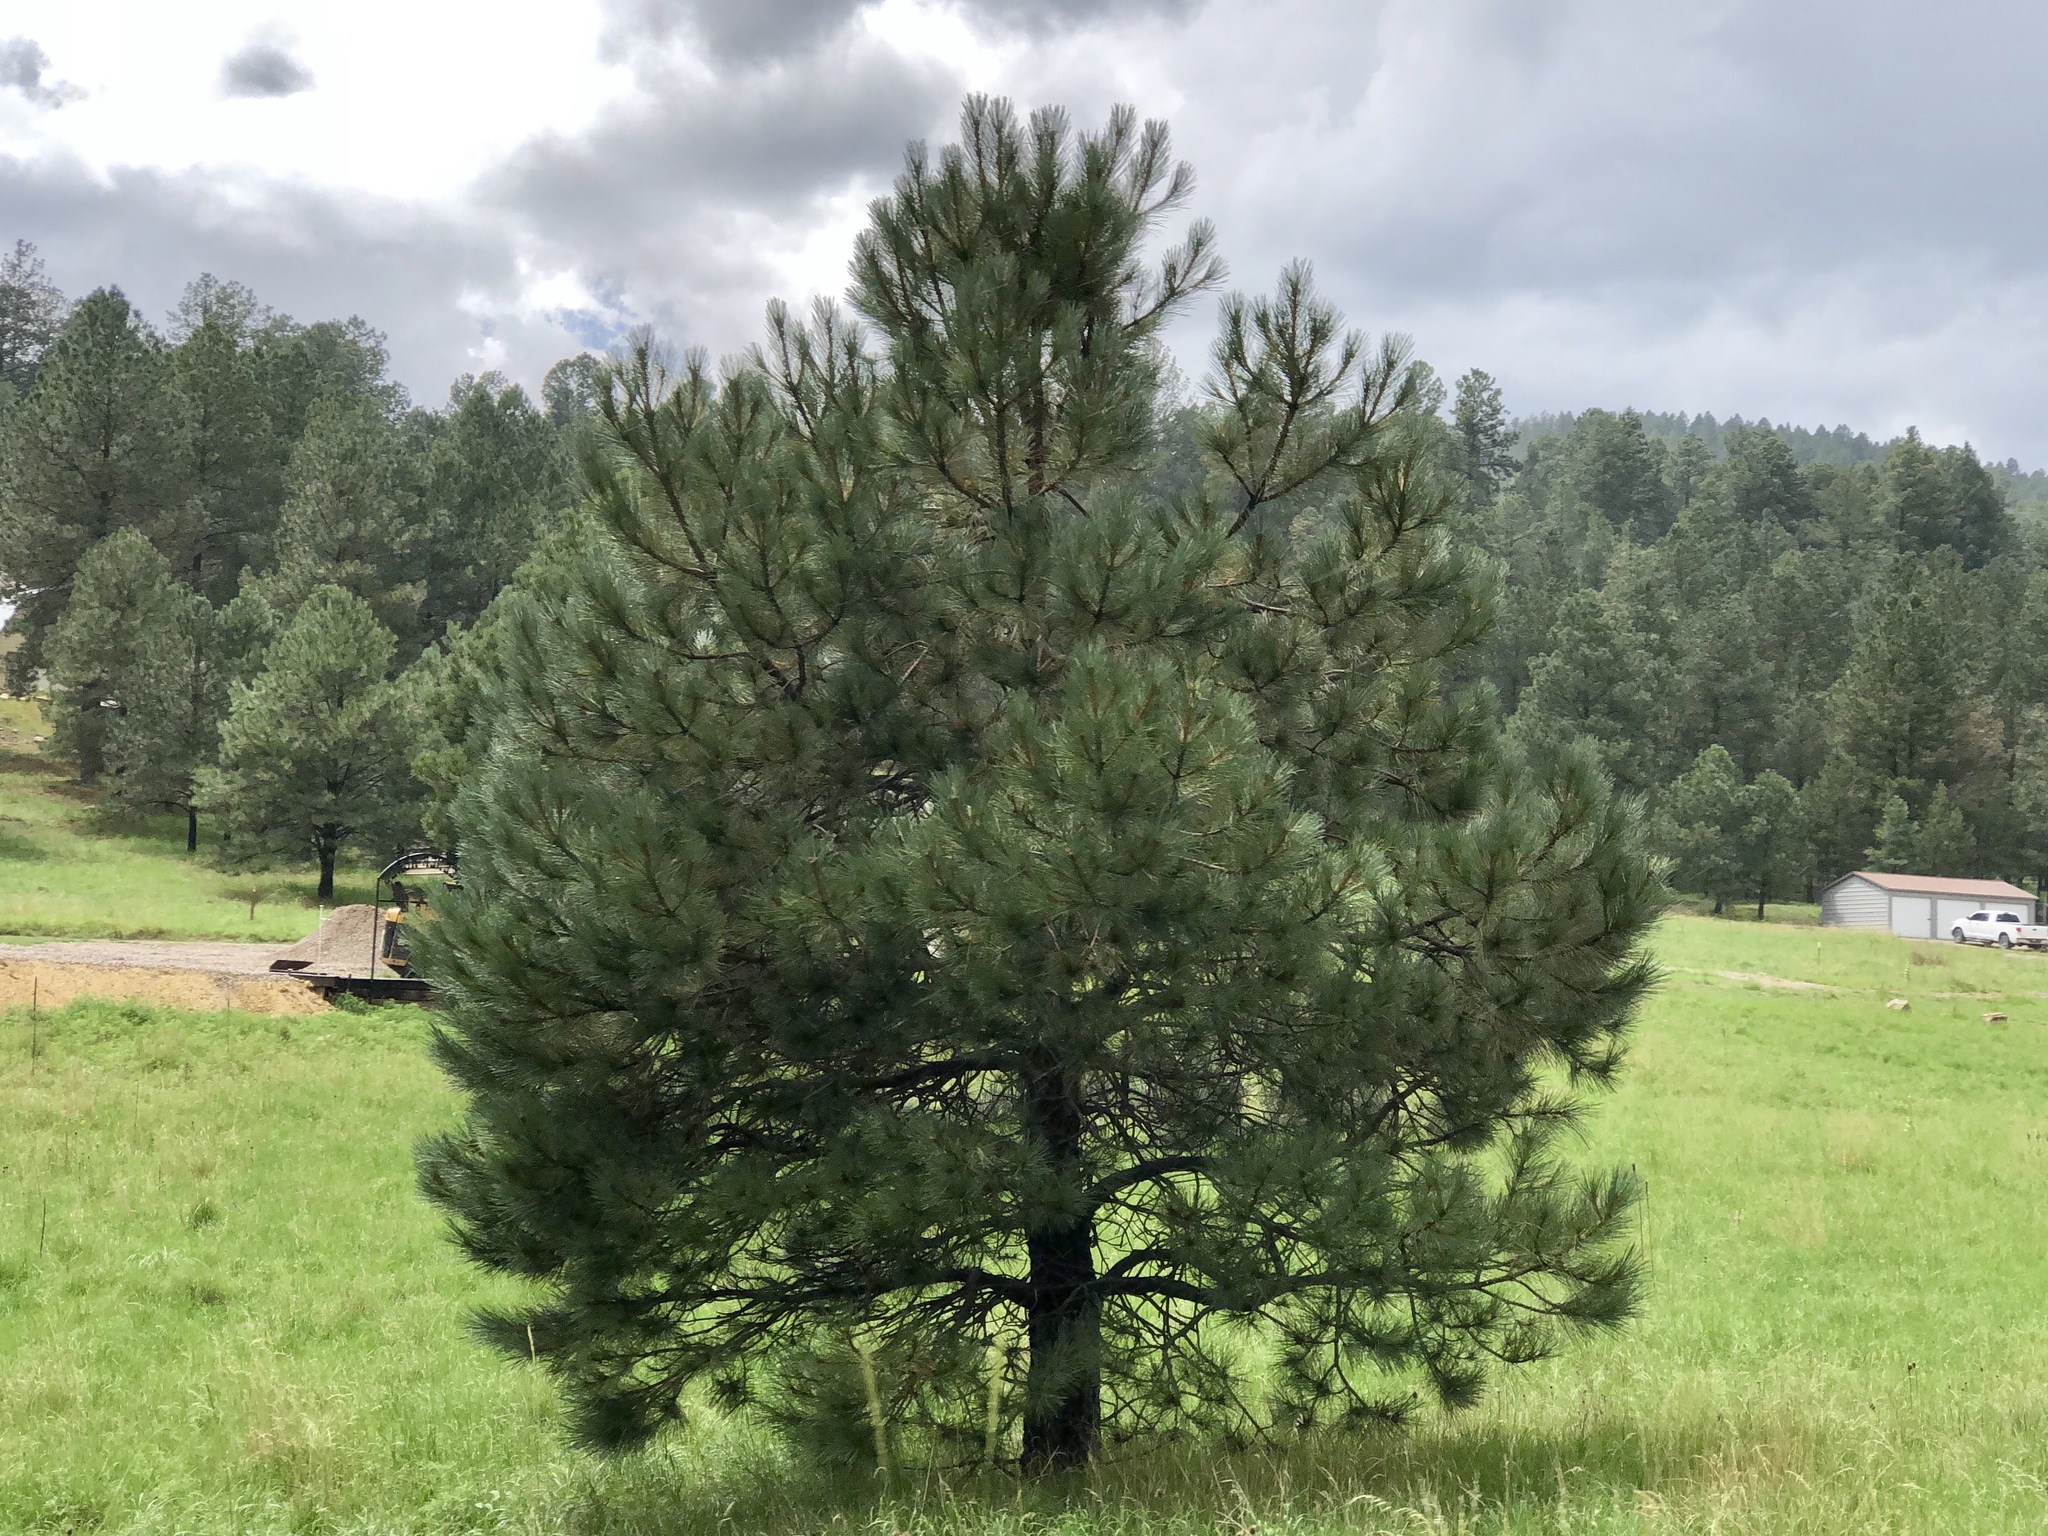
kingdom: Plantae
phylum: Tracheophyta
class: Pinopsida
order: Pinales
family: Pinaceae
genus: Pinus
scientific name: Pinus ponderosa
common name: Western yellow-pine
